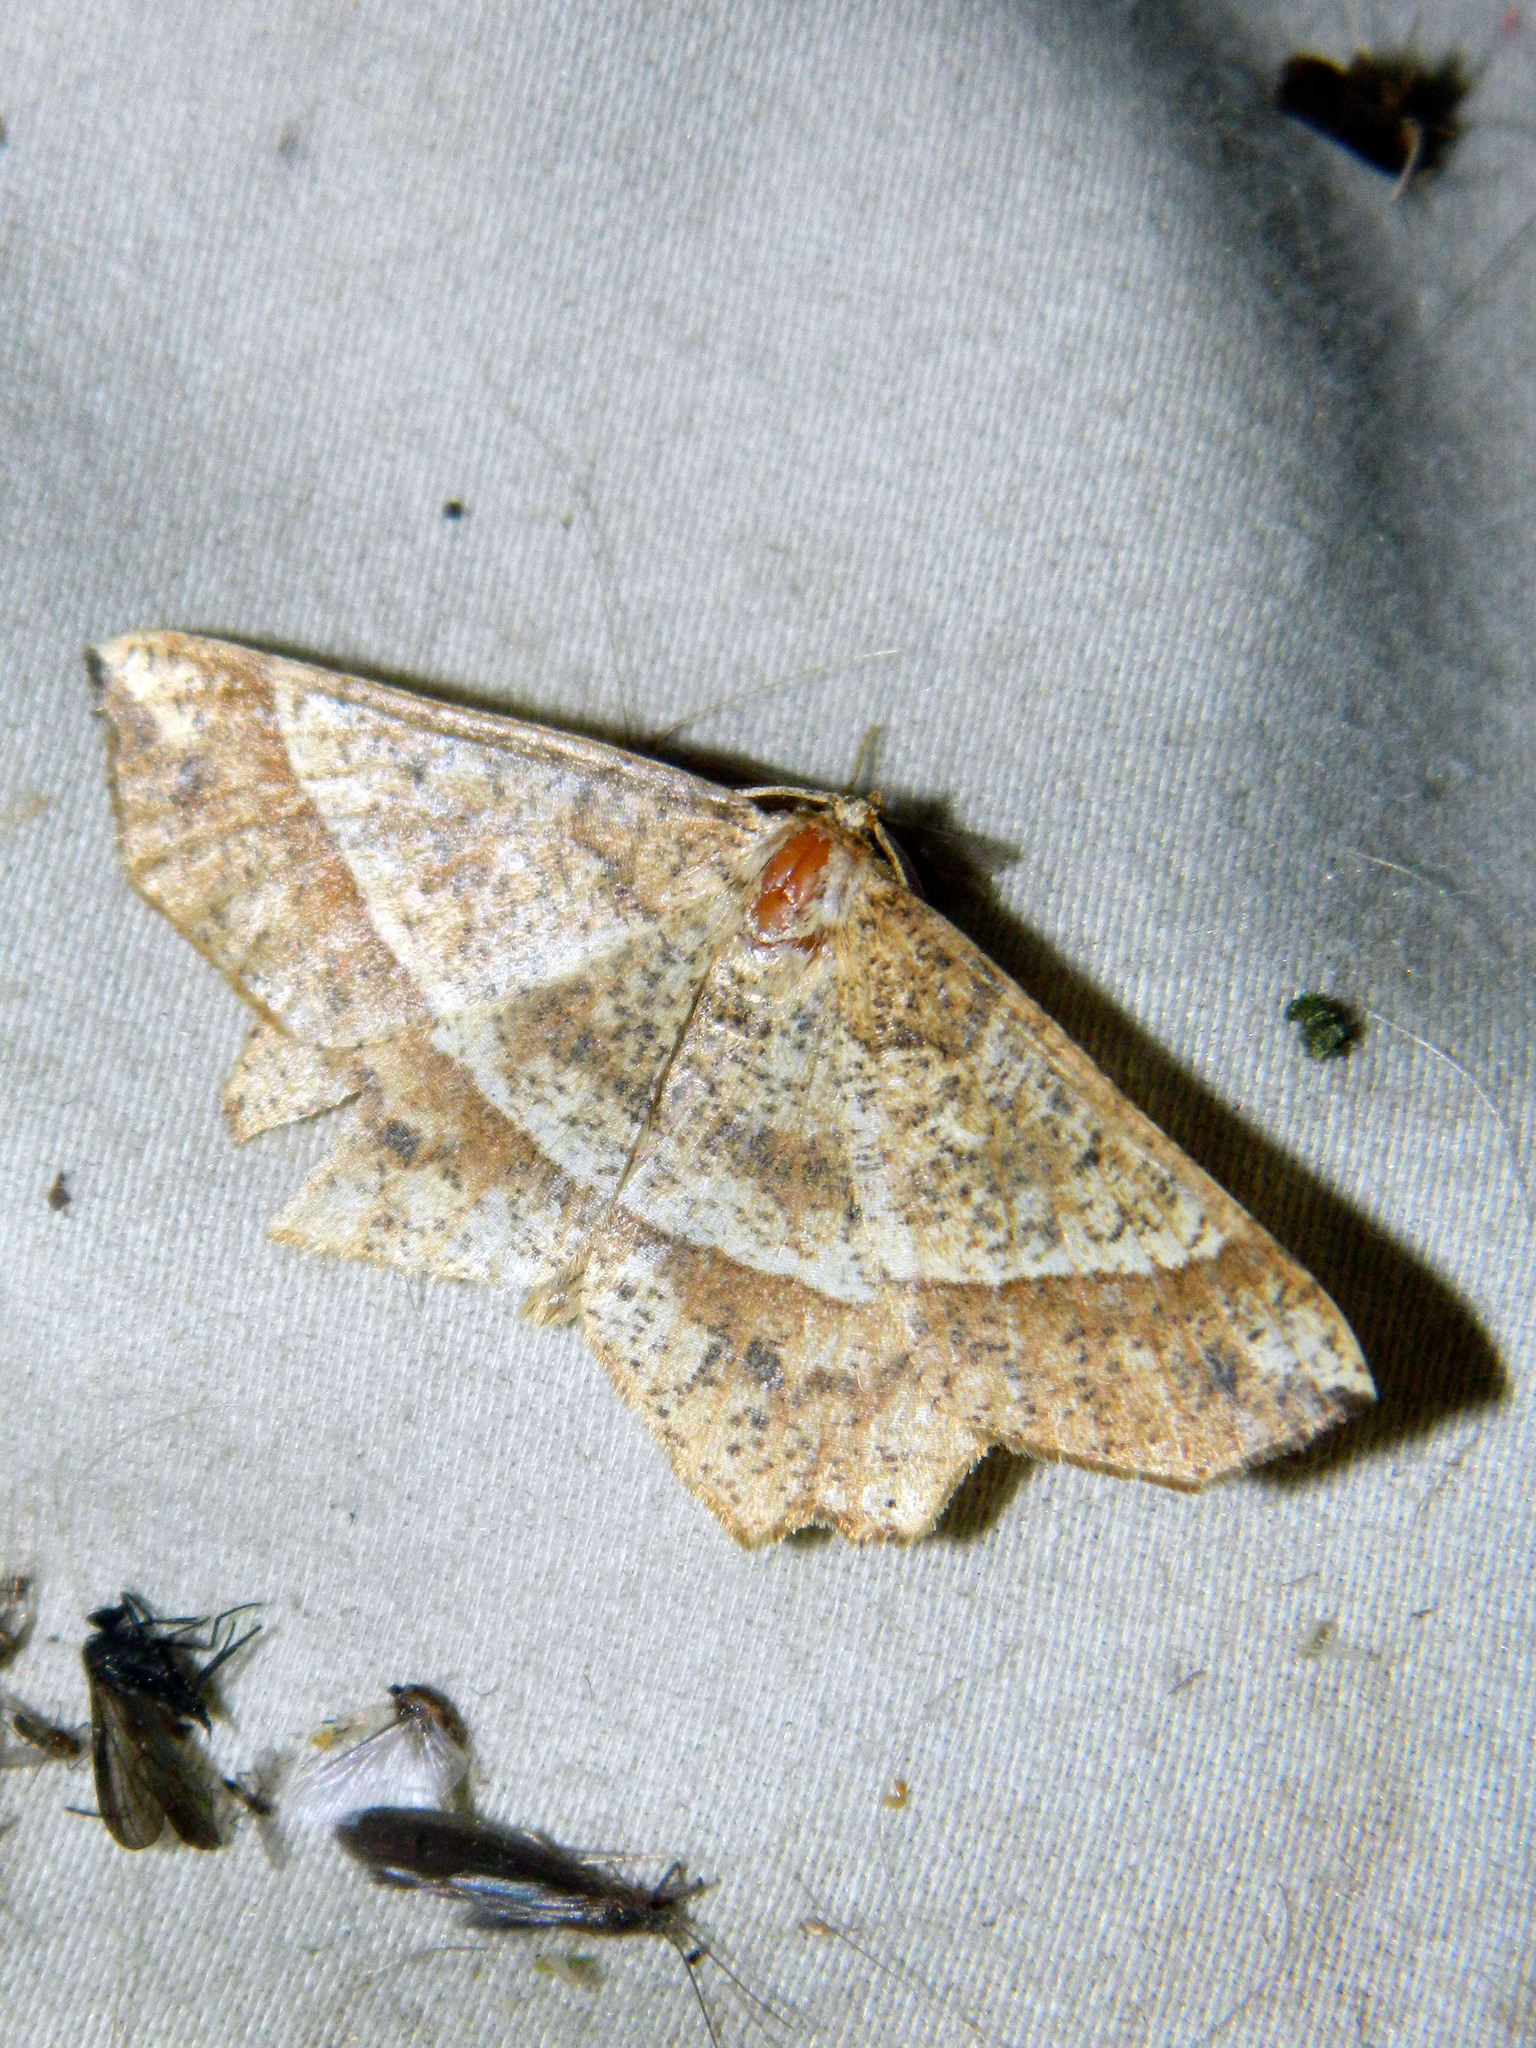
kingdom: Animalia
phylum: Arthropoda
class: Insecta
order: Lepidoptera
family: Geometridae
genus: Euchlaena
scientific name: Euchlaena tigrinaria
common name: Mottled euchlaena moth
